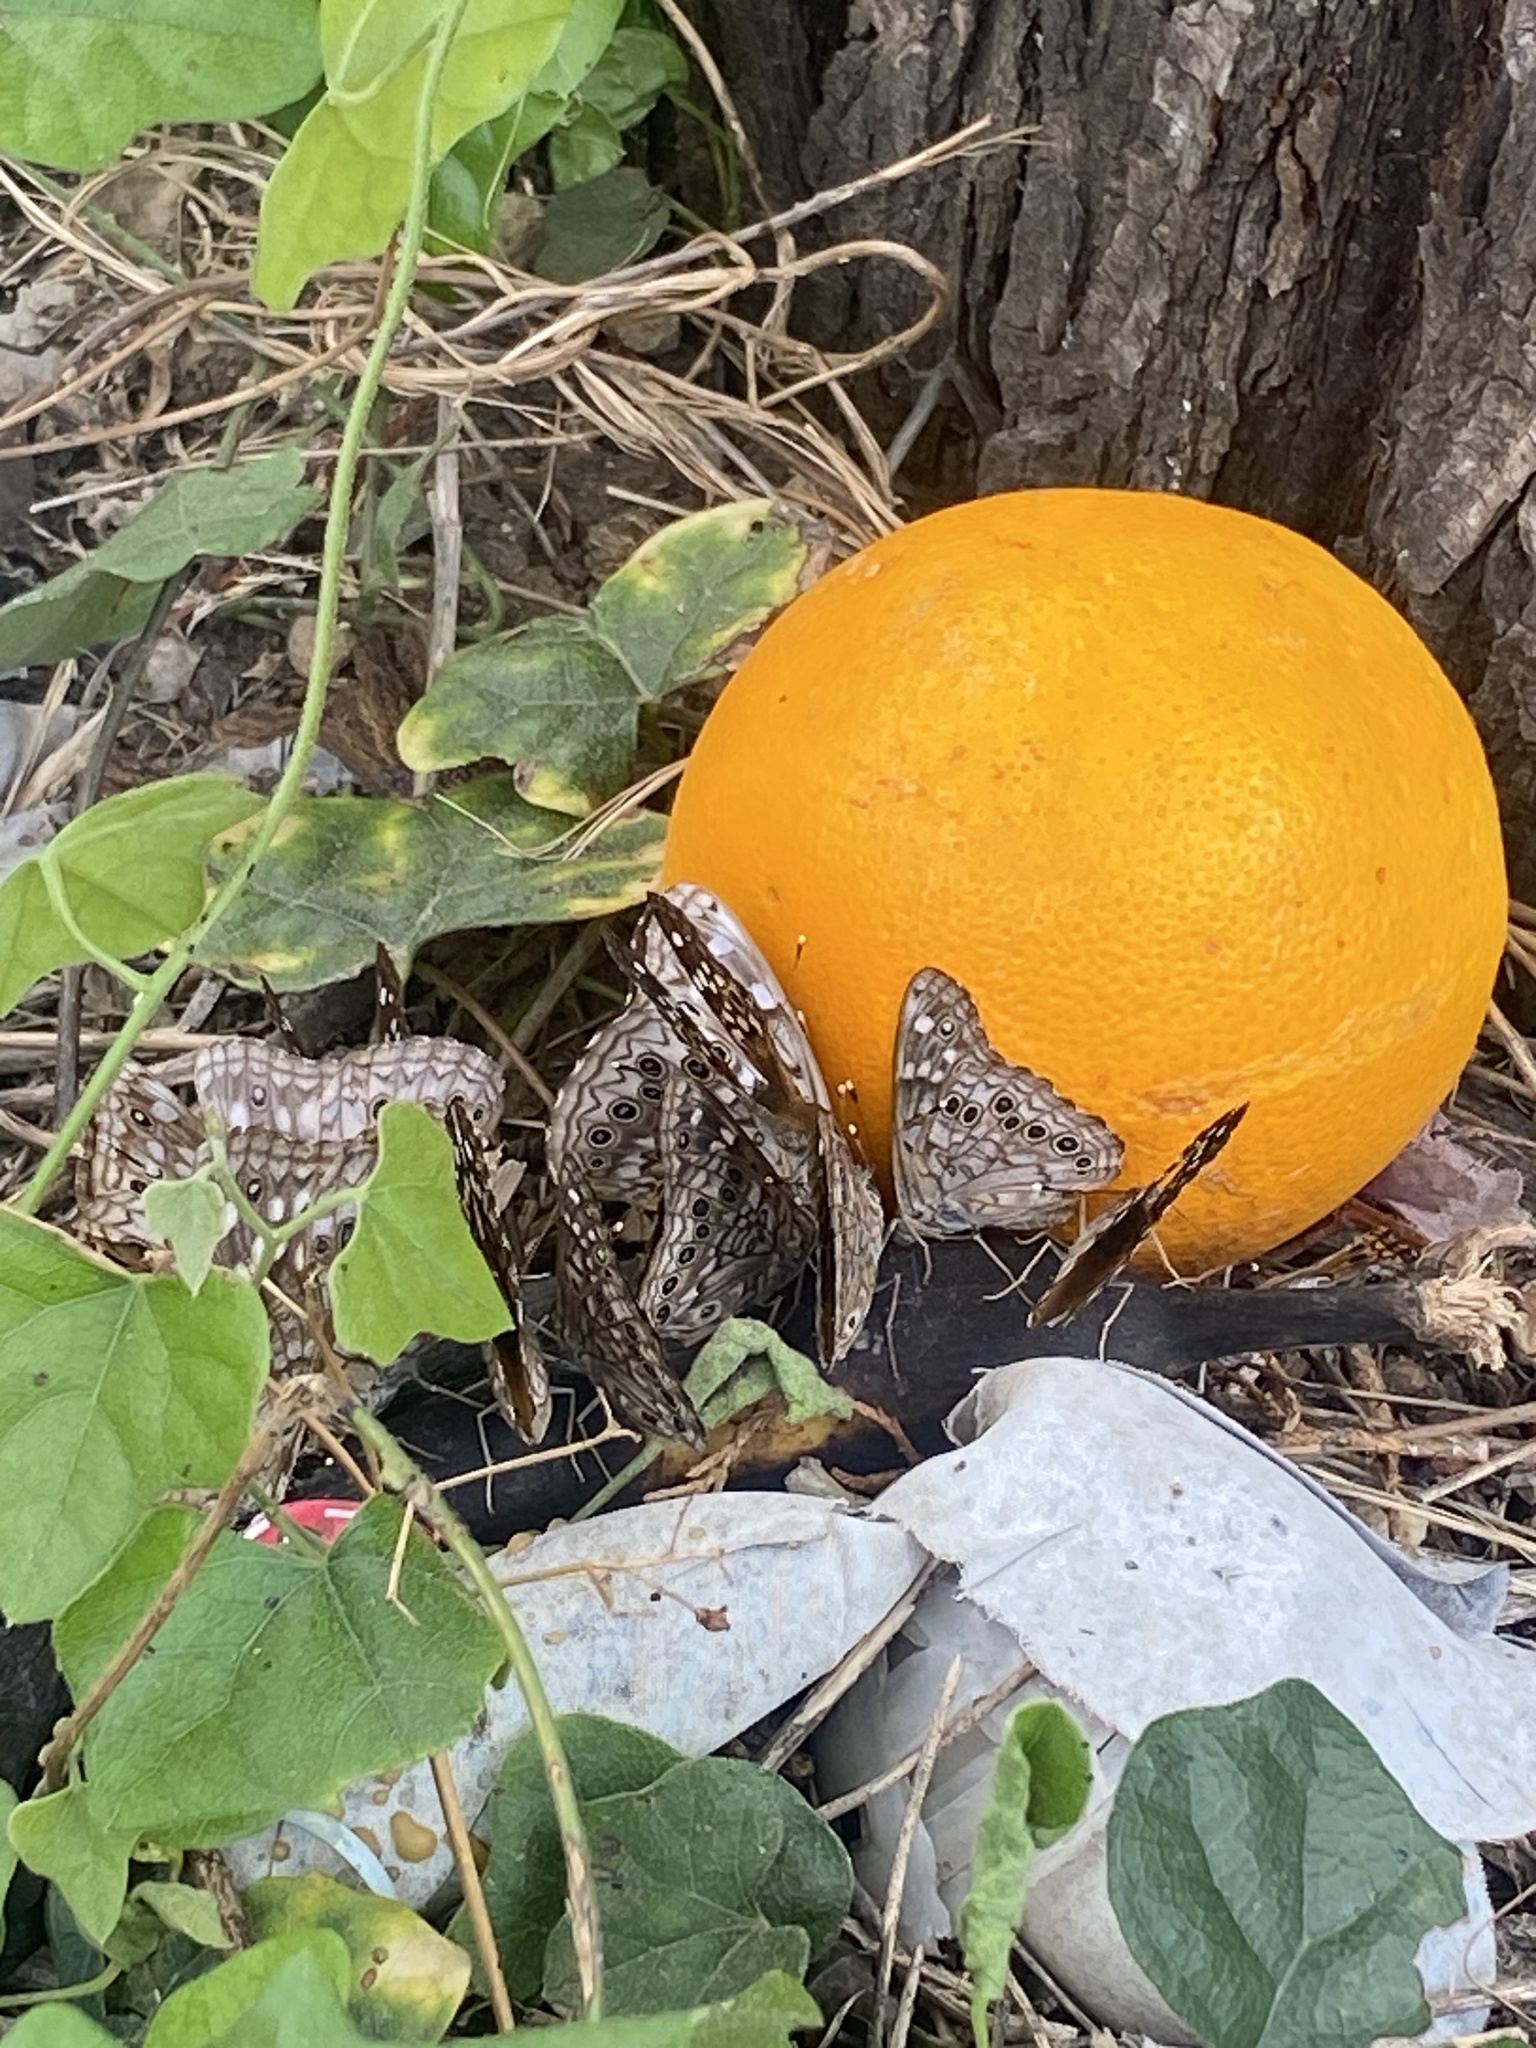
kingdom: Animalia
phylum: Arthropoda
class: Insecta
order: Lepidoptera
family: Nymphalidae
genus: Asterocampa
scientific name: Asterocampa celtis
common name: Hackberry emperor
